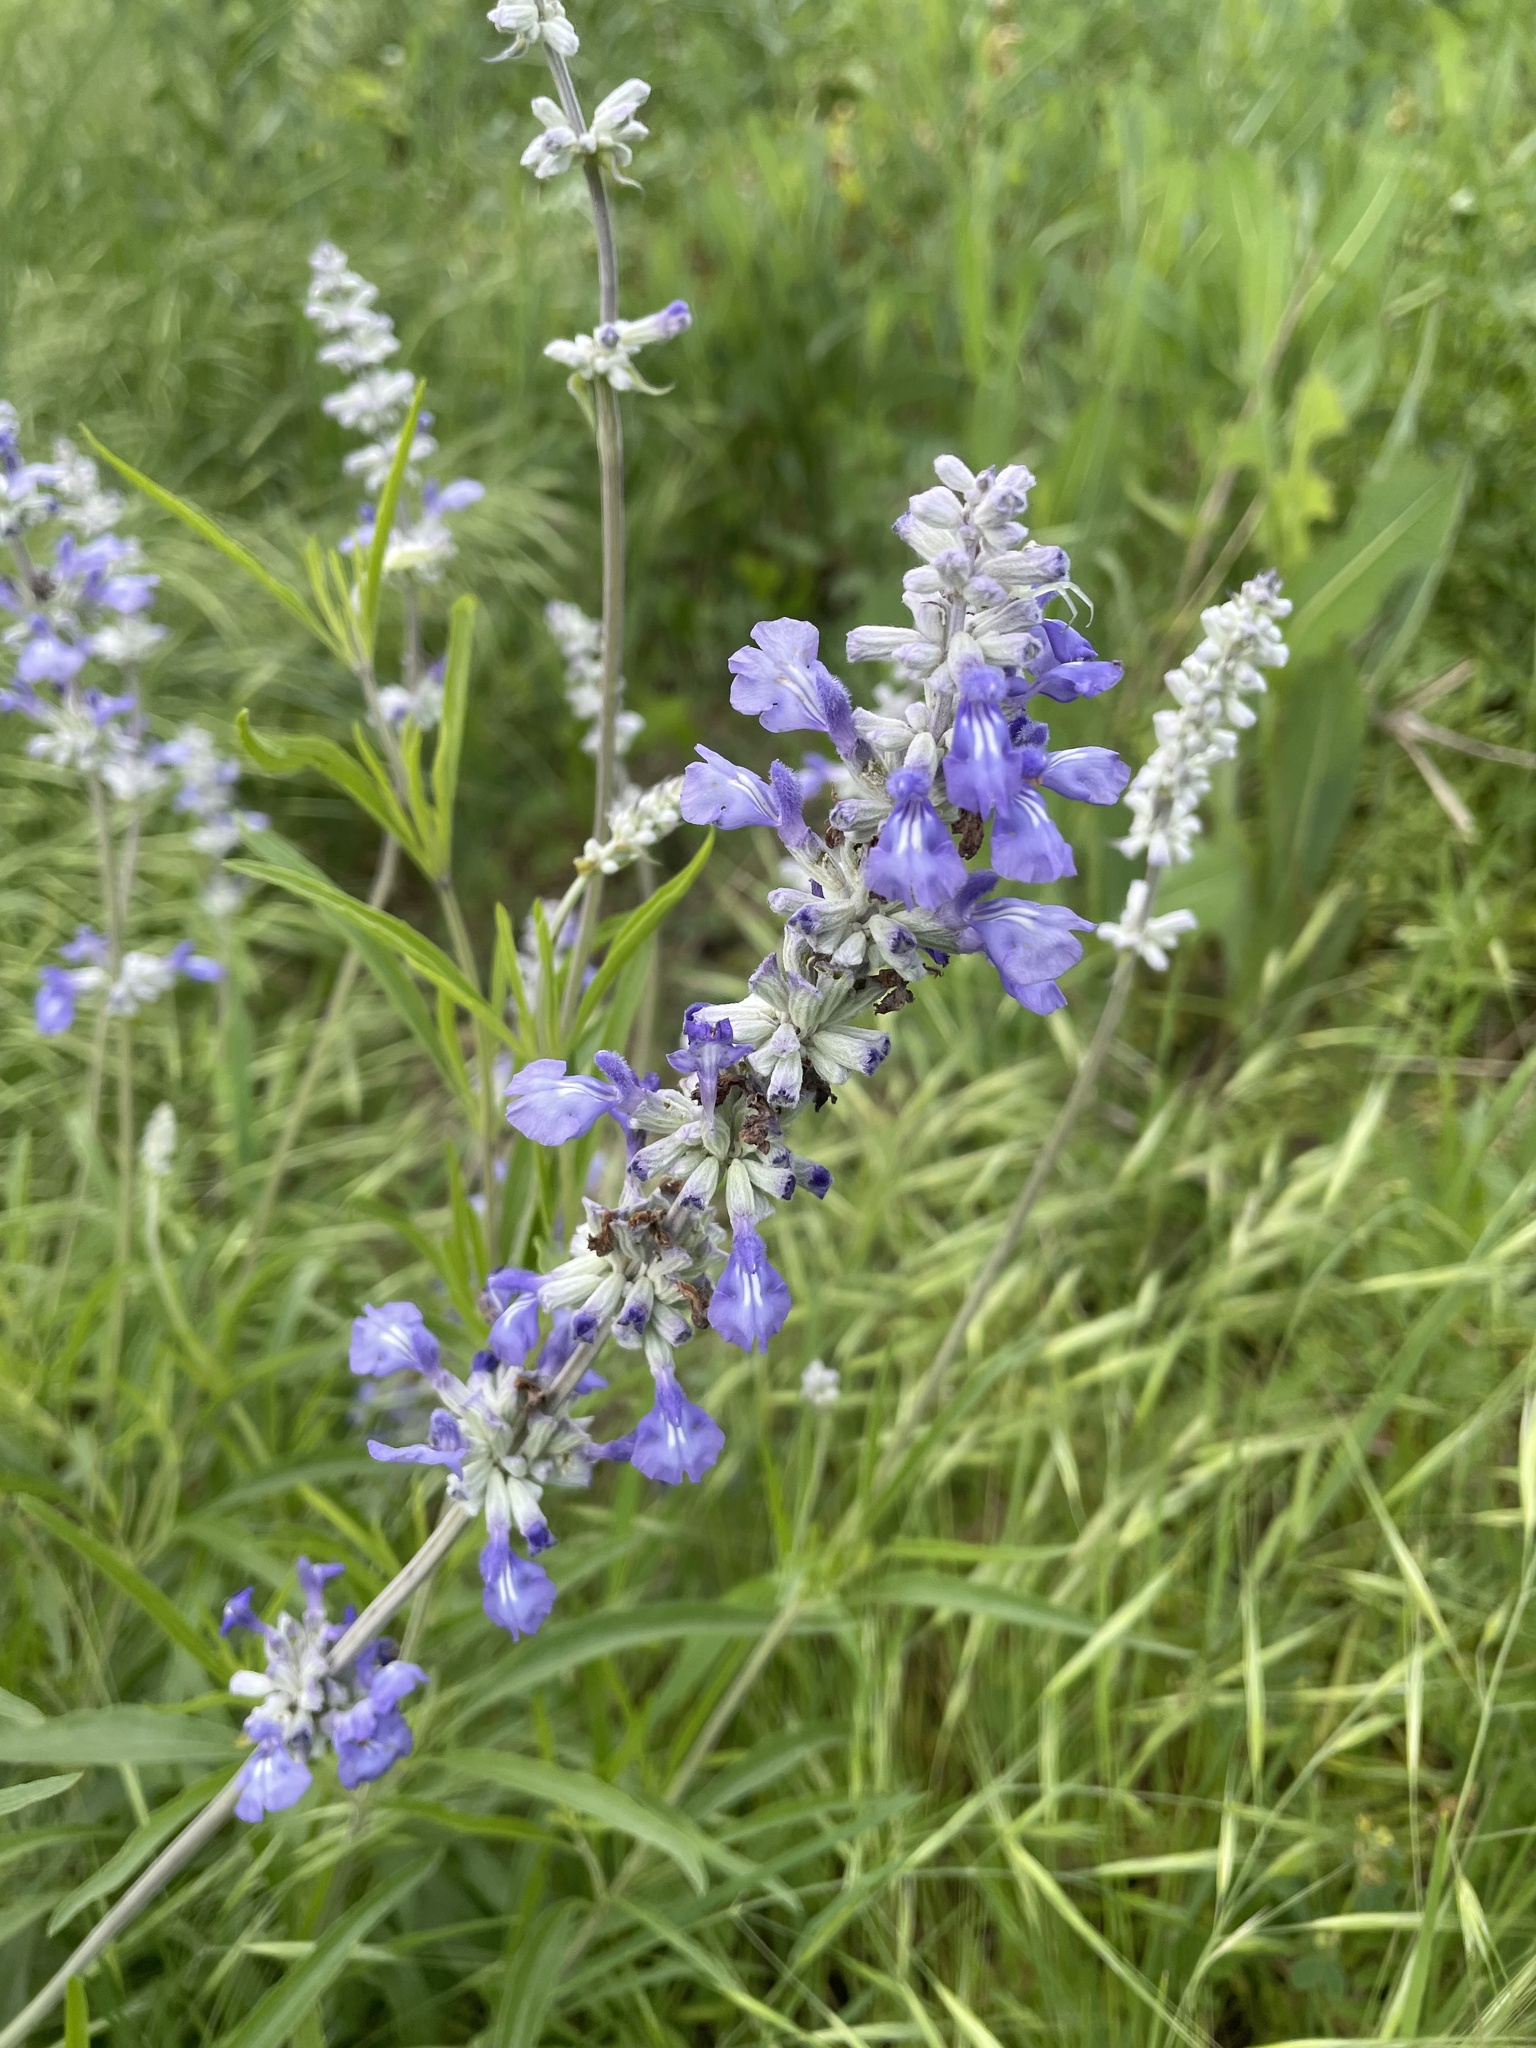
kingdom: Plantae
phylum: Tracheophyta
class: Magnoliopsida
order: Lamiales
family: Lamiaceae
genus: Salvia
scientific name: Salvia farinacea
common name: Mealy sage
